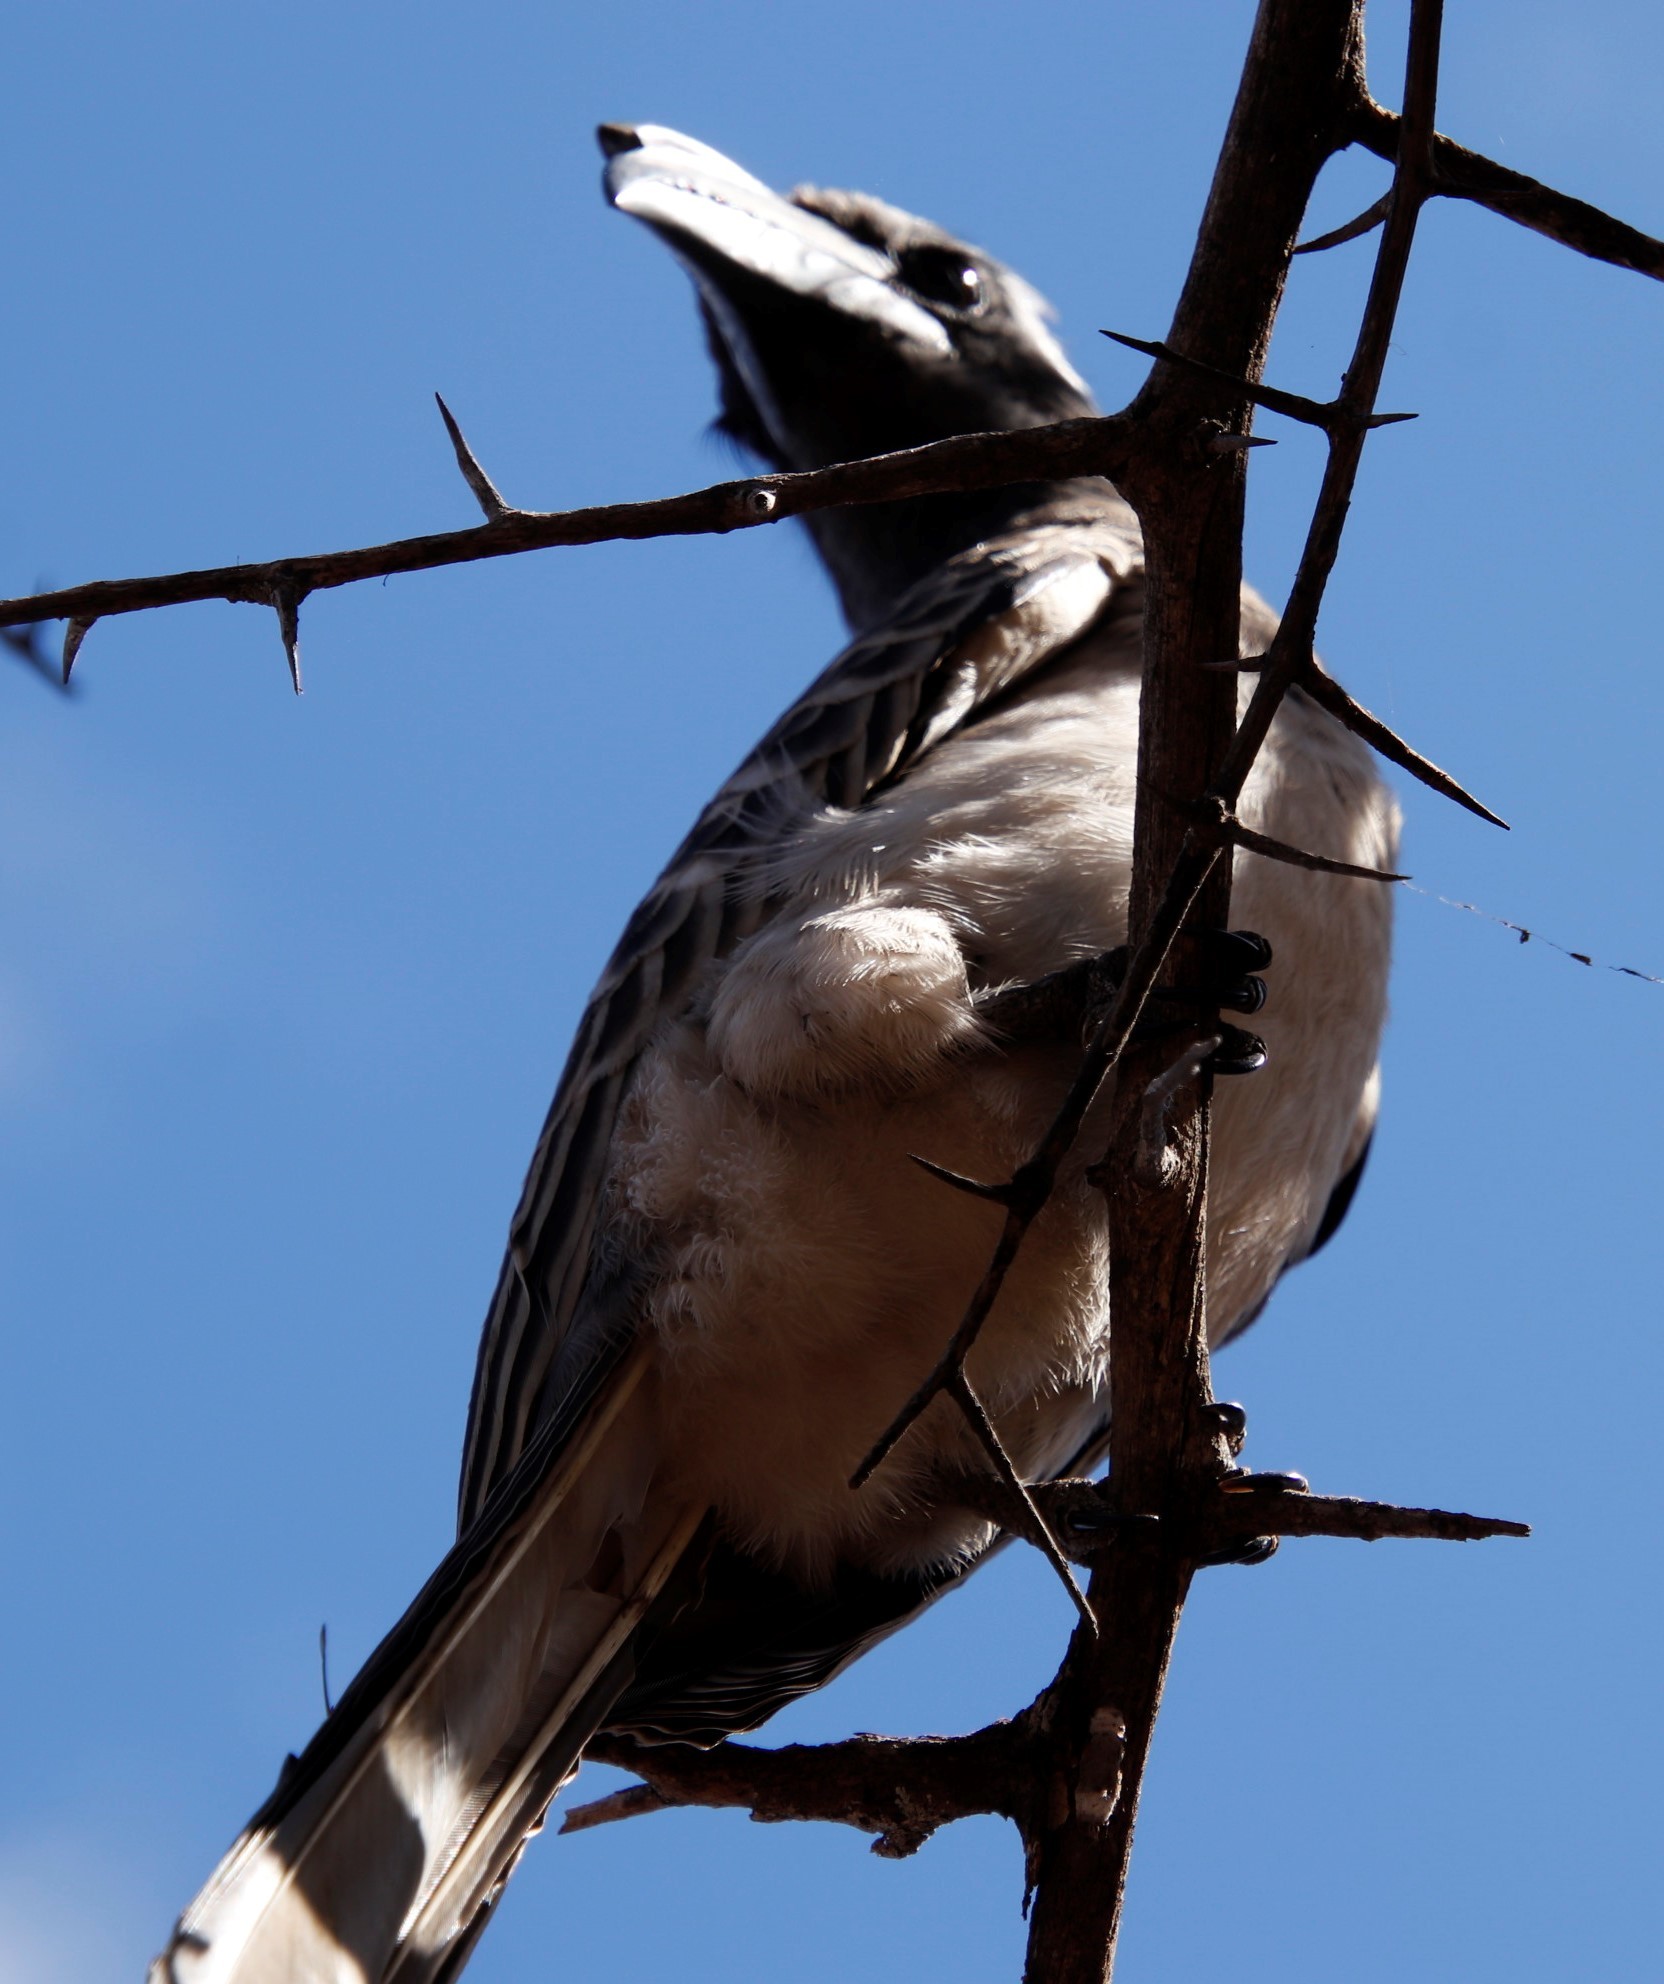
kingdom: Animalia
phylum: Chordata
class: Aves
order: Bucerotiformes
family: Bucerotidae
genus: Lophoceros
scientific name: Lophoceros nasutus
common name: African grey hornbill
